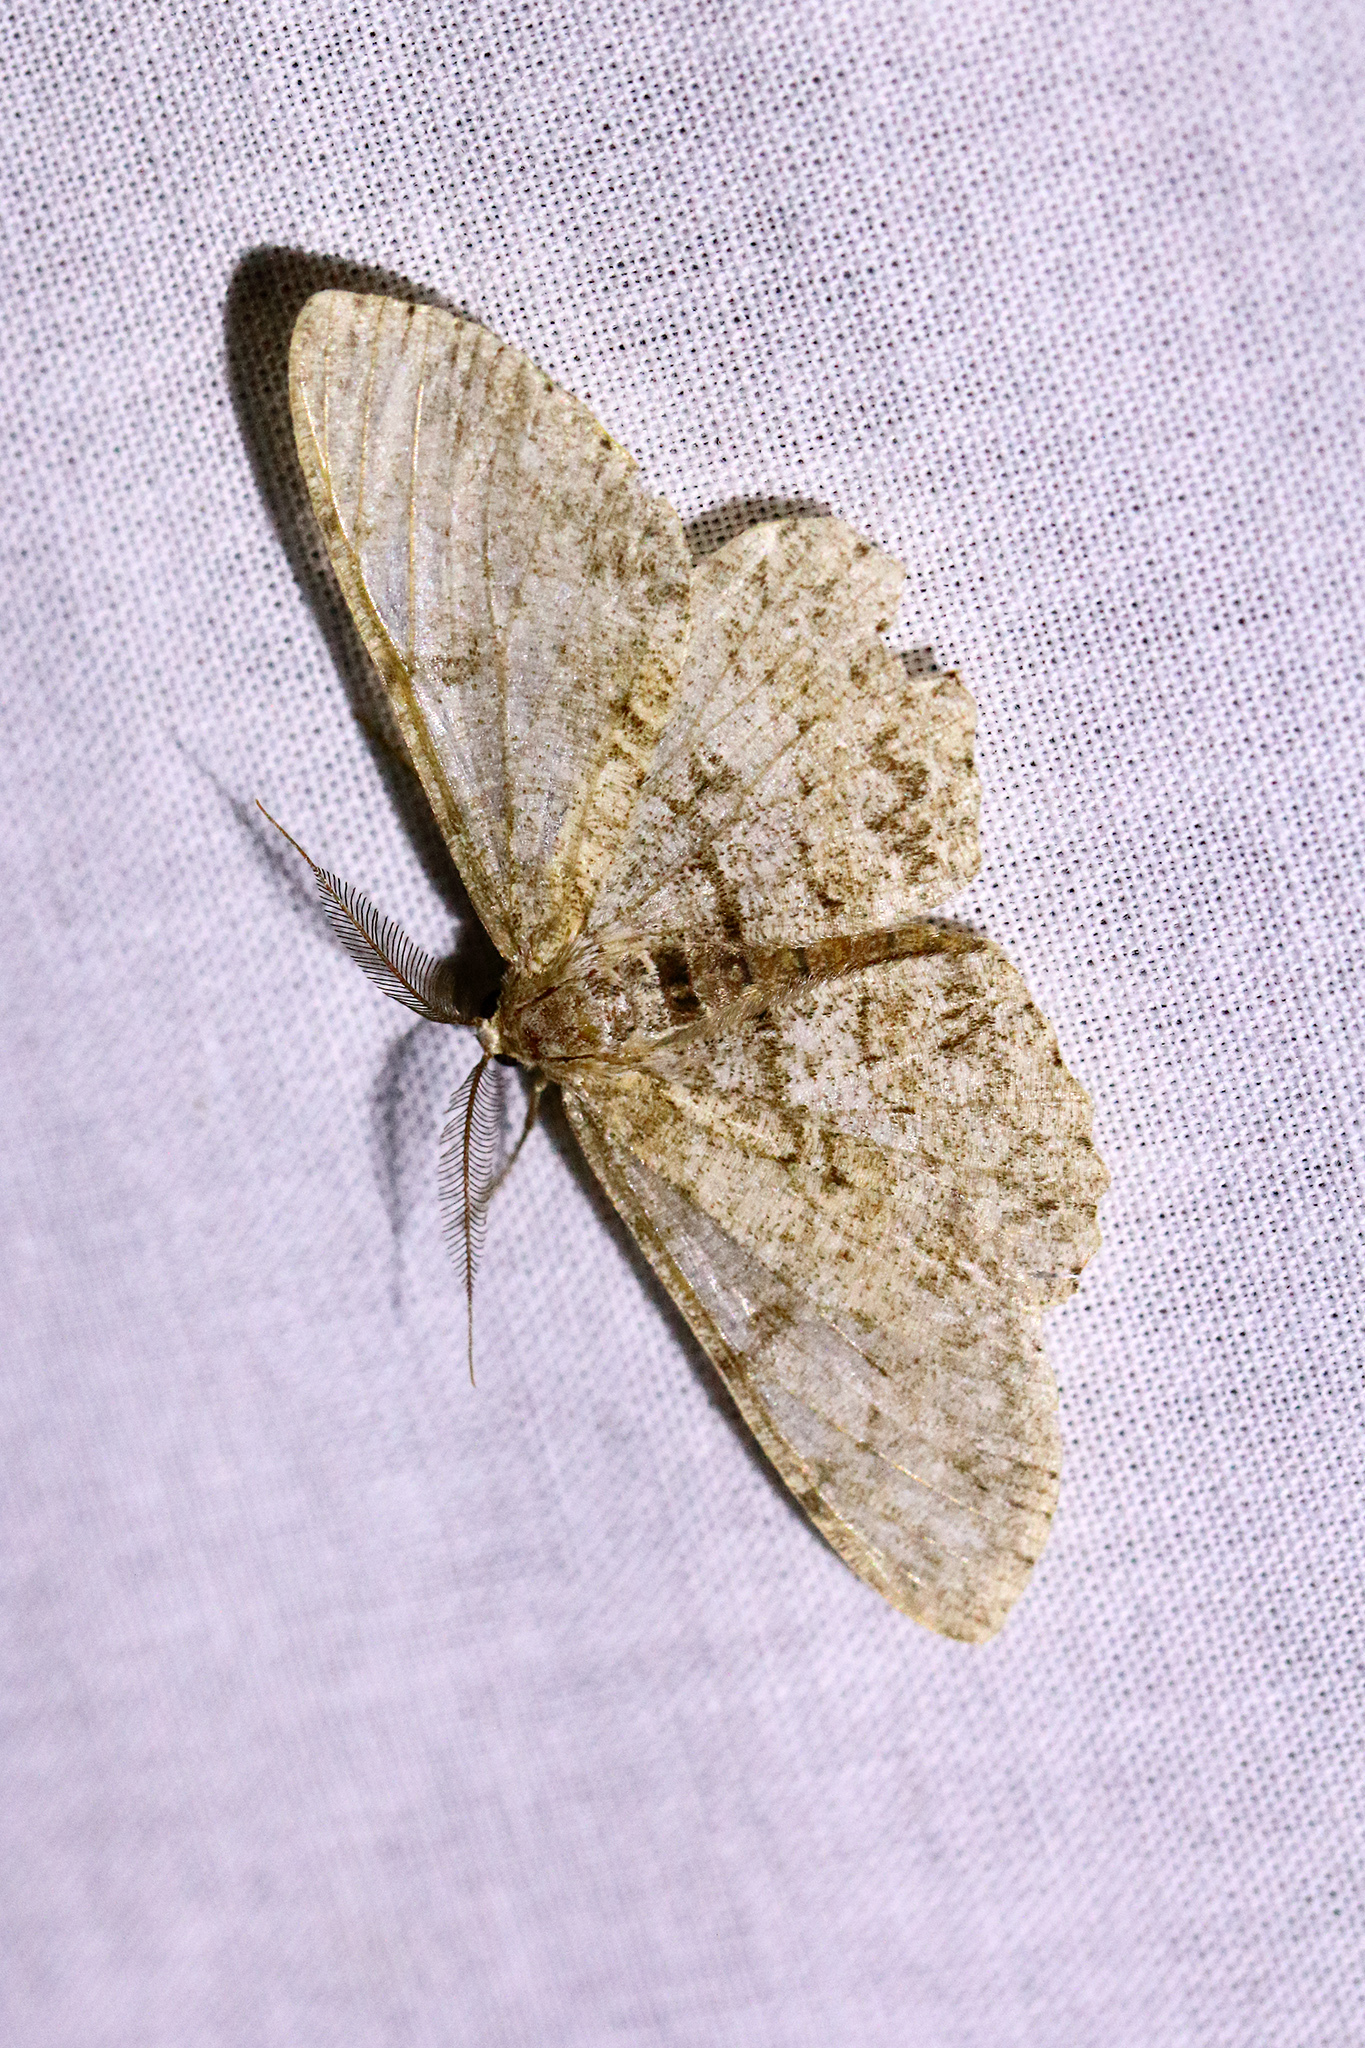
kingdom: Animalia
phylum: Arthropoda
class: Insecta
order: Lepidoptera
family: Geometridae
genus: Hypomecis
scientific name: Hypomecis punctinalis
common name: Pale oak beauty
